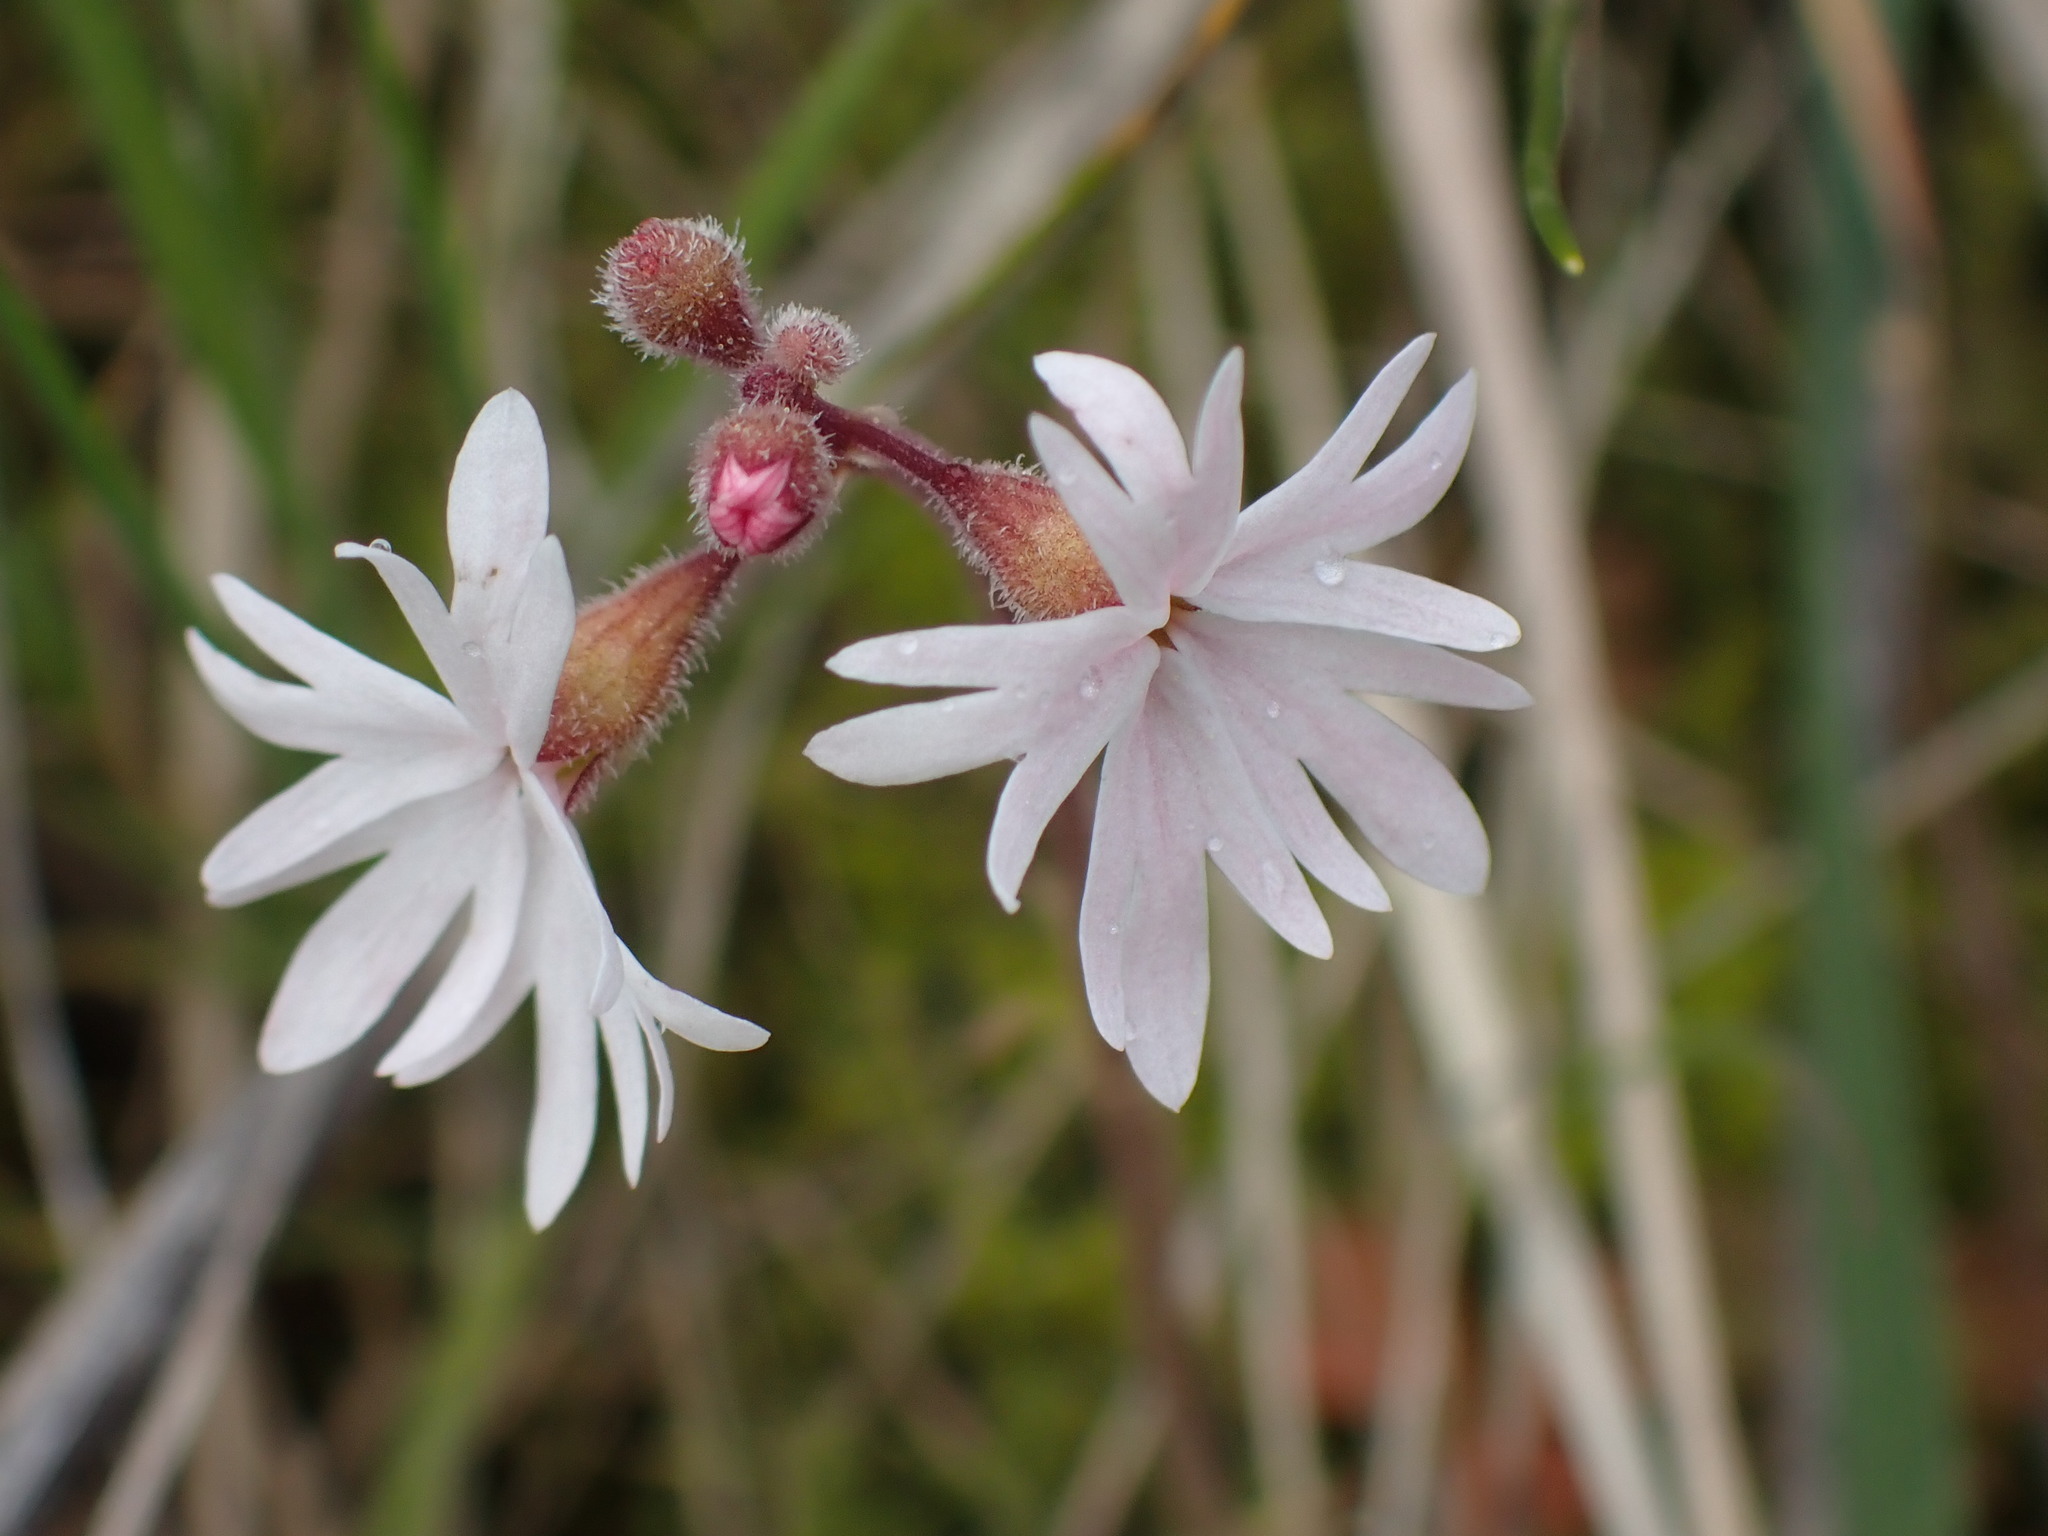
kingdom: Plantae
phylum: Tracheophyta
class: Magnoliopsida
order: Saxifragales
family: Saxifragaceae
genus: Lithophragma
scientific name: Lithophragma parviflorum
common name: Small-flowered fringe-cup
